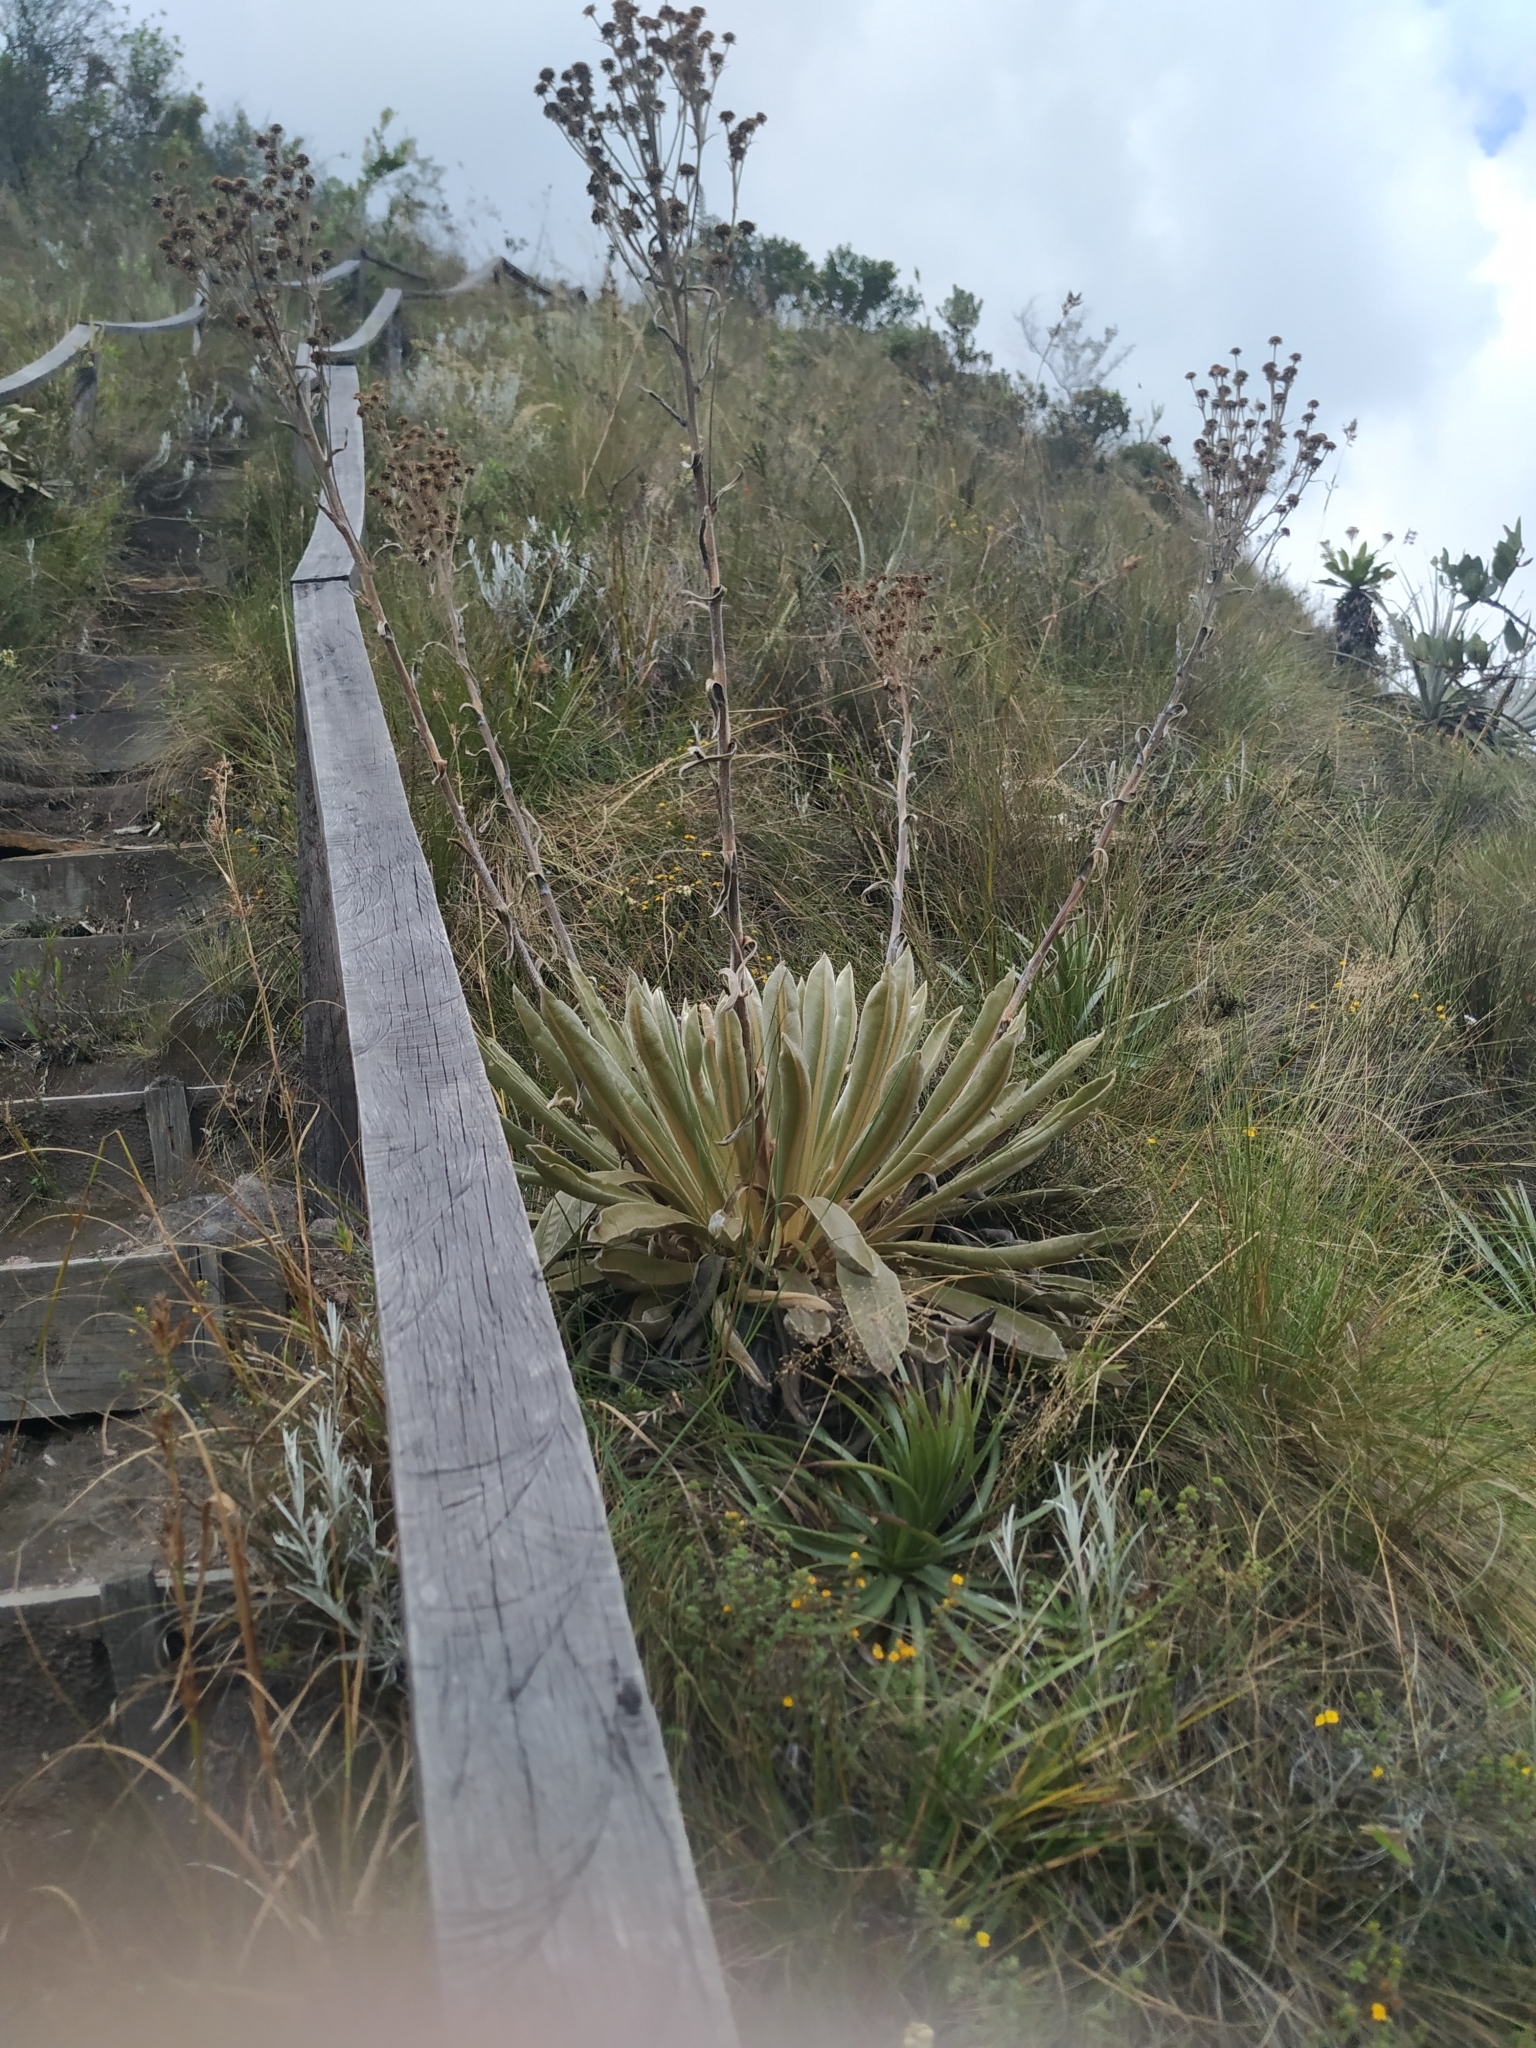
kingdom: Plantae
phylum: Tracheophyta
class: Magnoliopsida
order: Asterales
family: Asteraceae
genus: Espeletia
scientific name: Espeletia muiska
